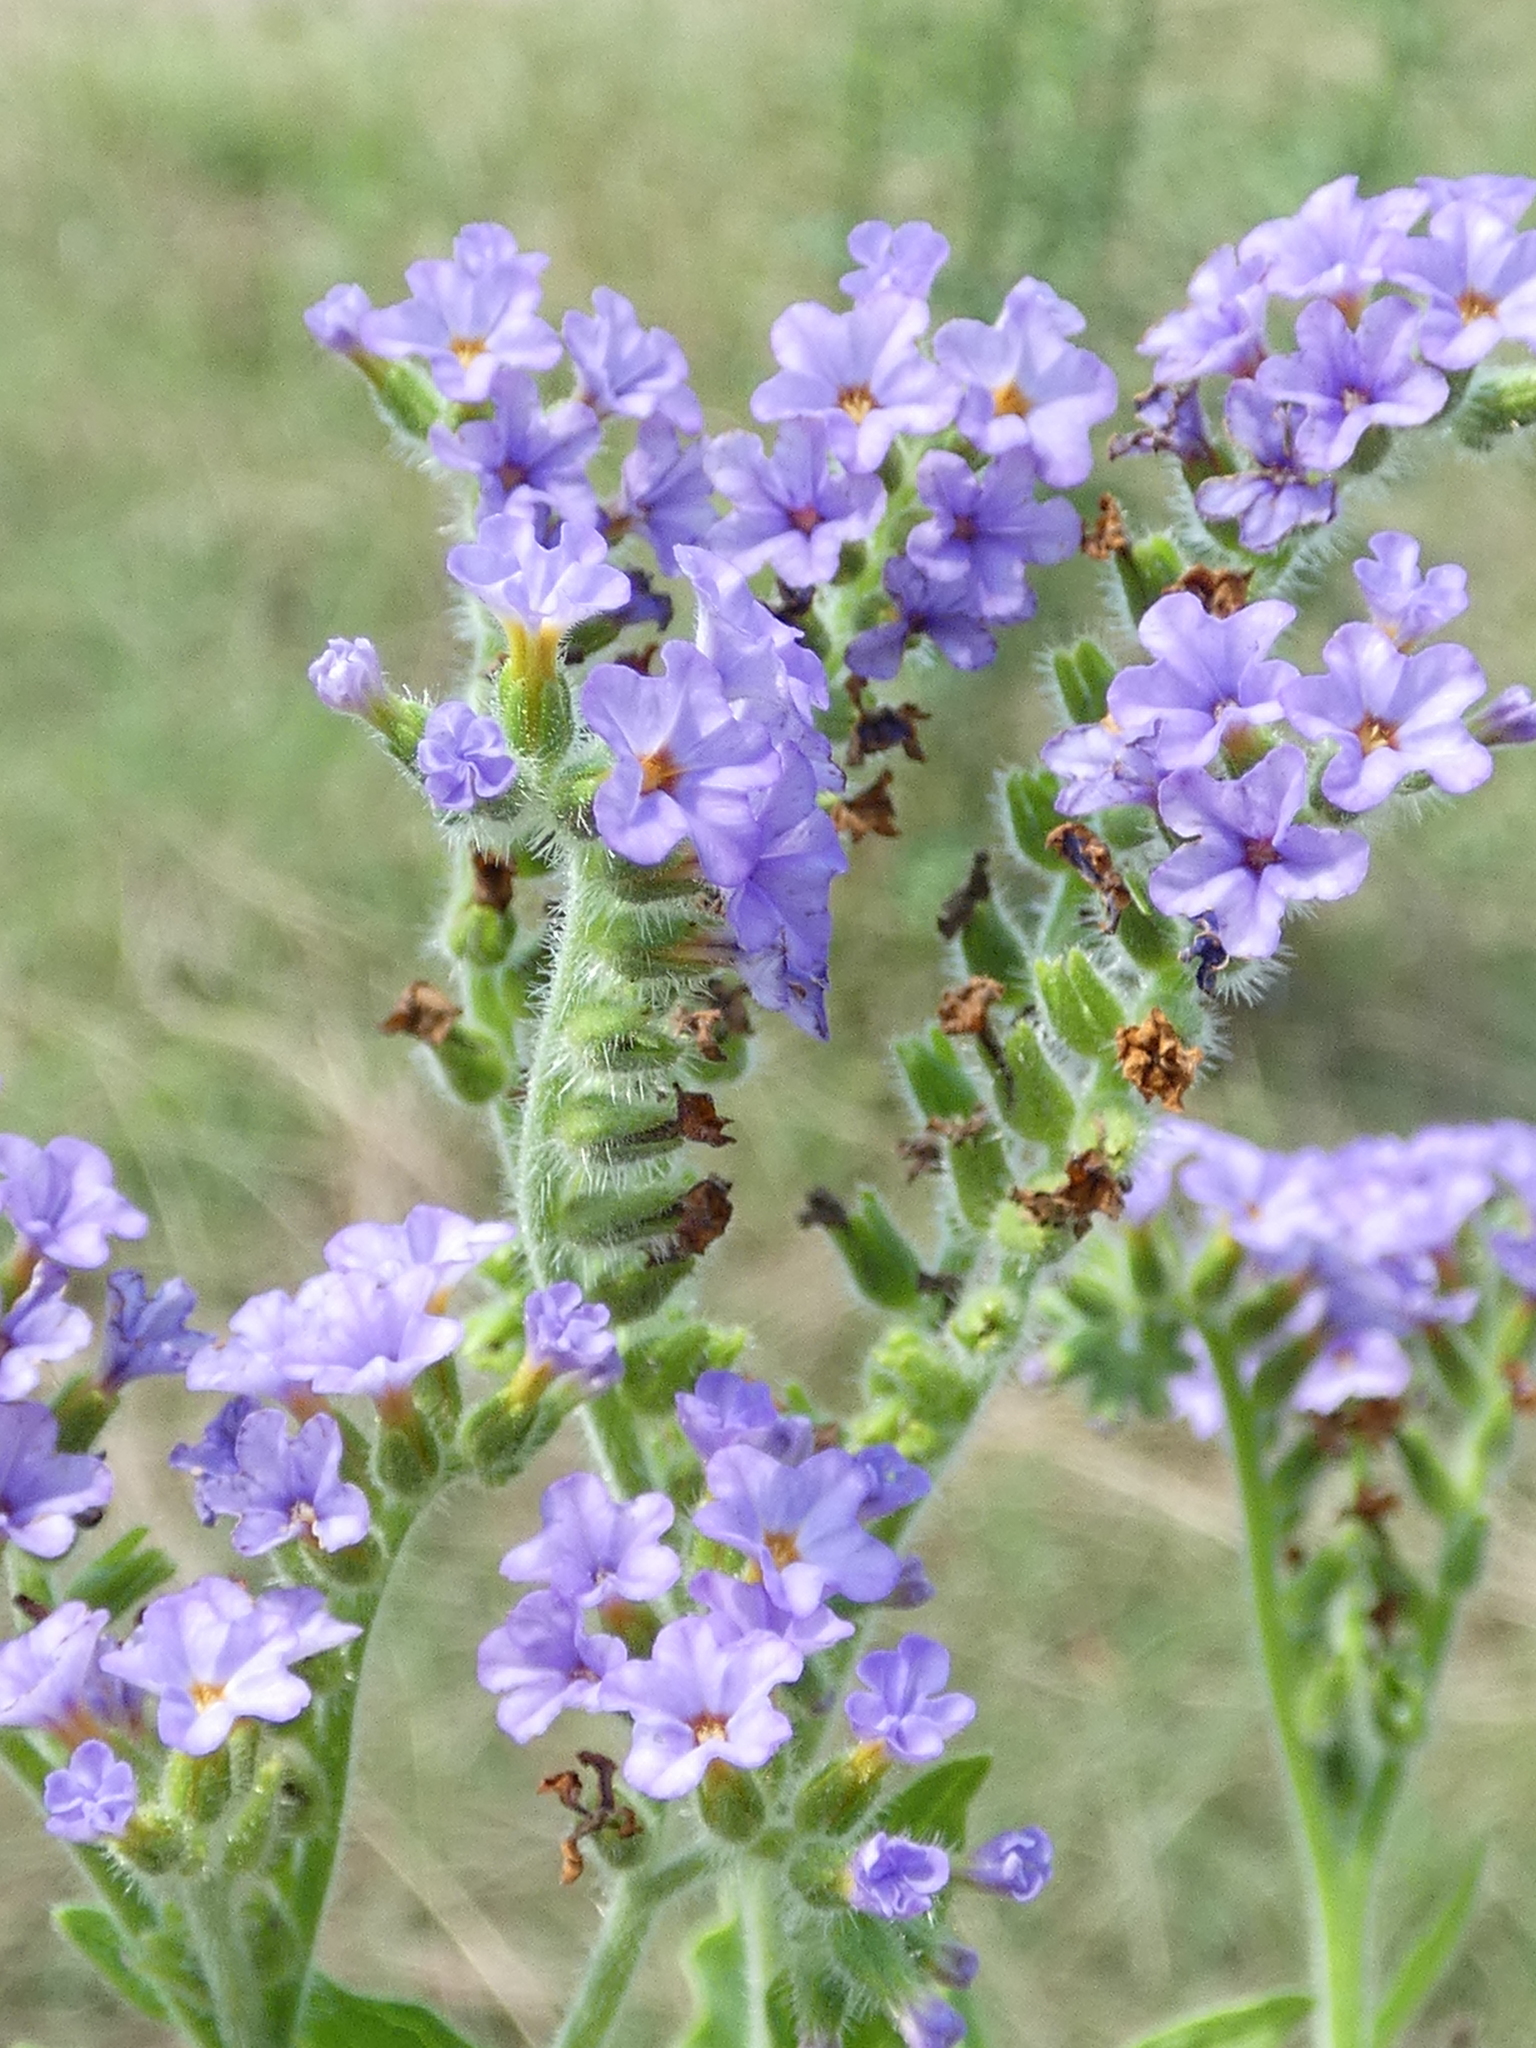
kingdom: Plantae
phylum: Tracheophyta
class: Magnoliopsida
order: Boraginales
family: Heliotropiaceae
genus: Heliotropium
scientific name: Heliotropium amplexicaule
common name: Clasping heliotrope
